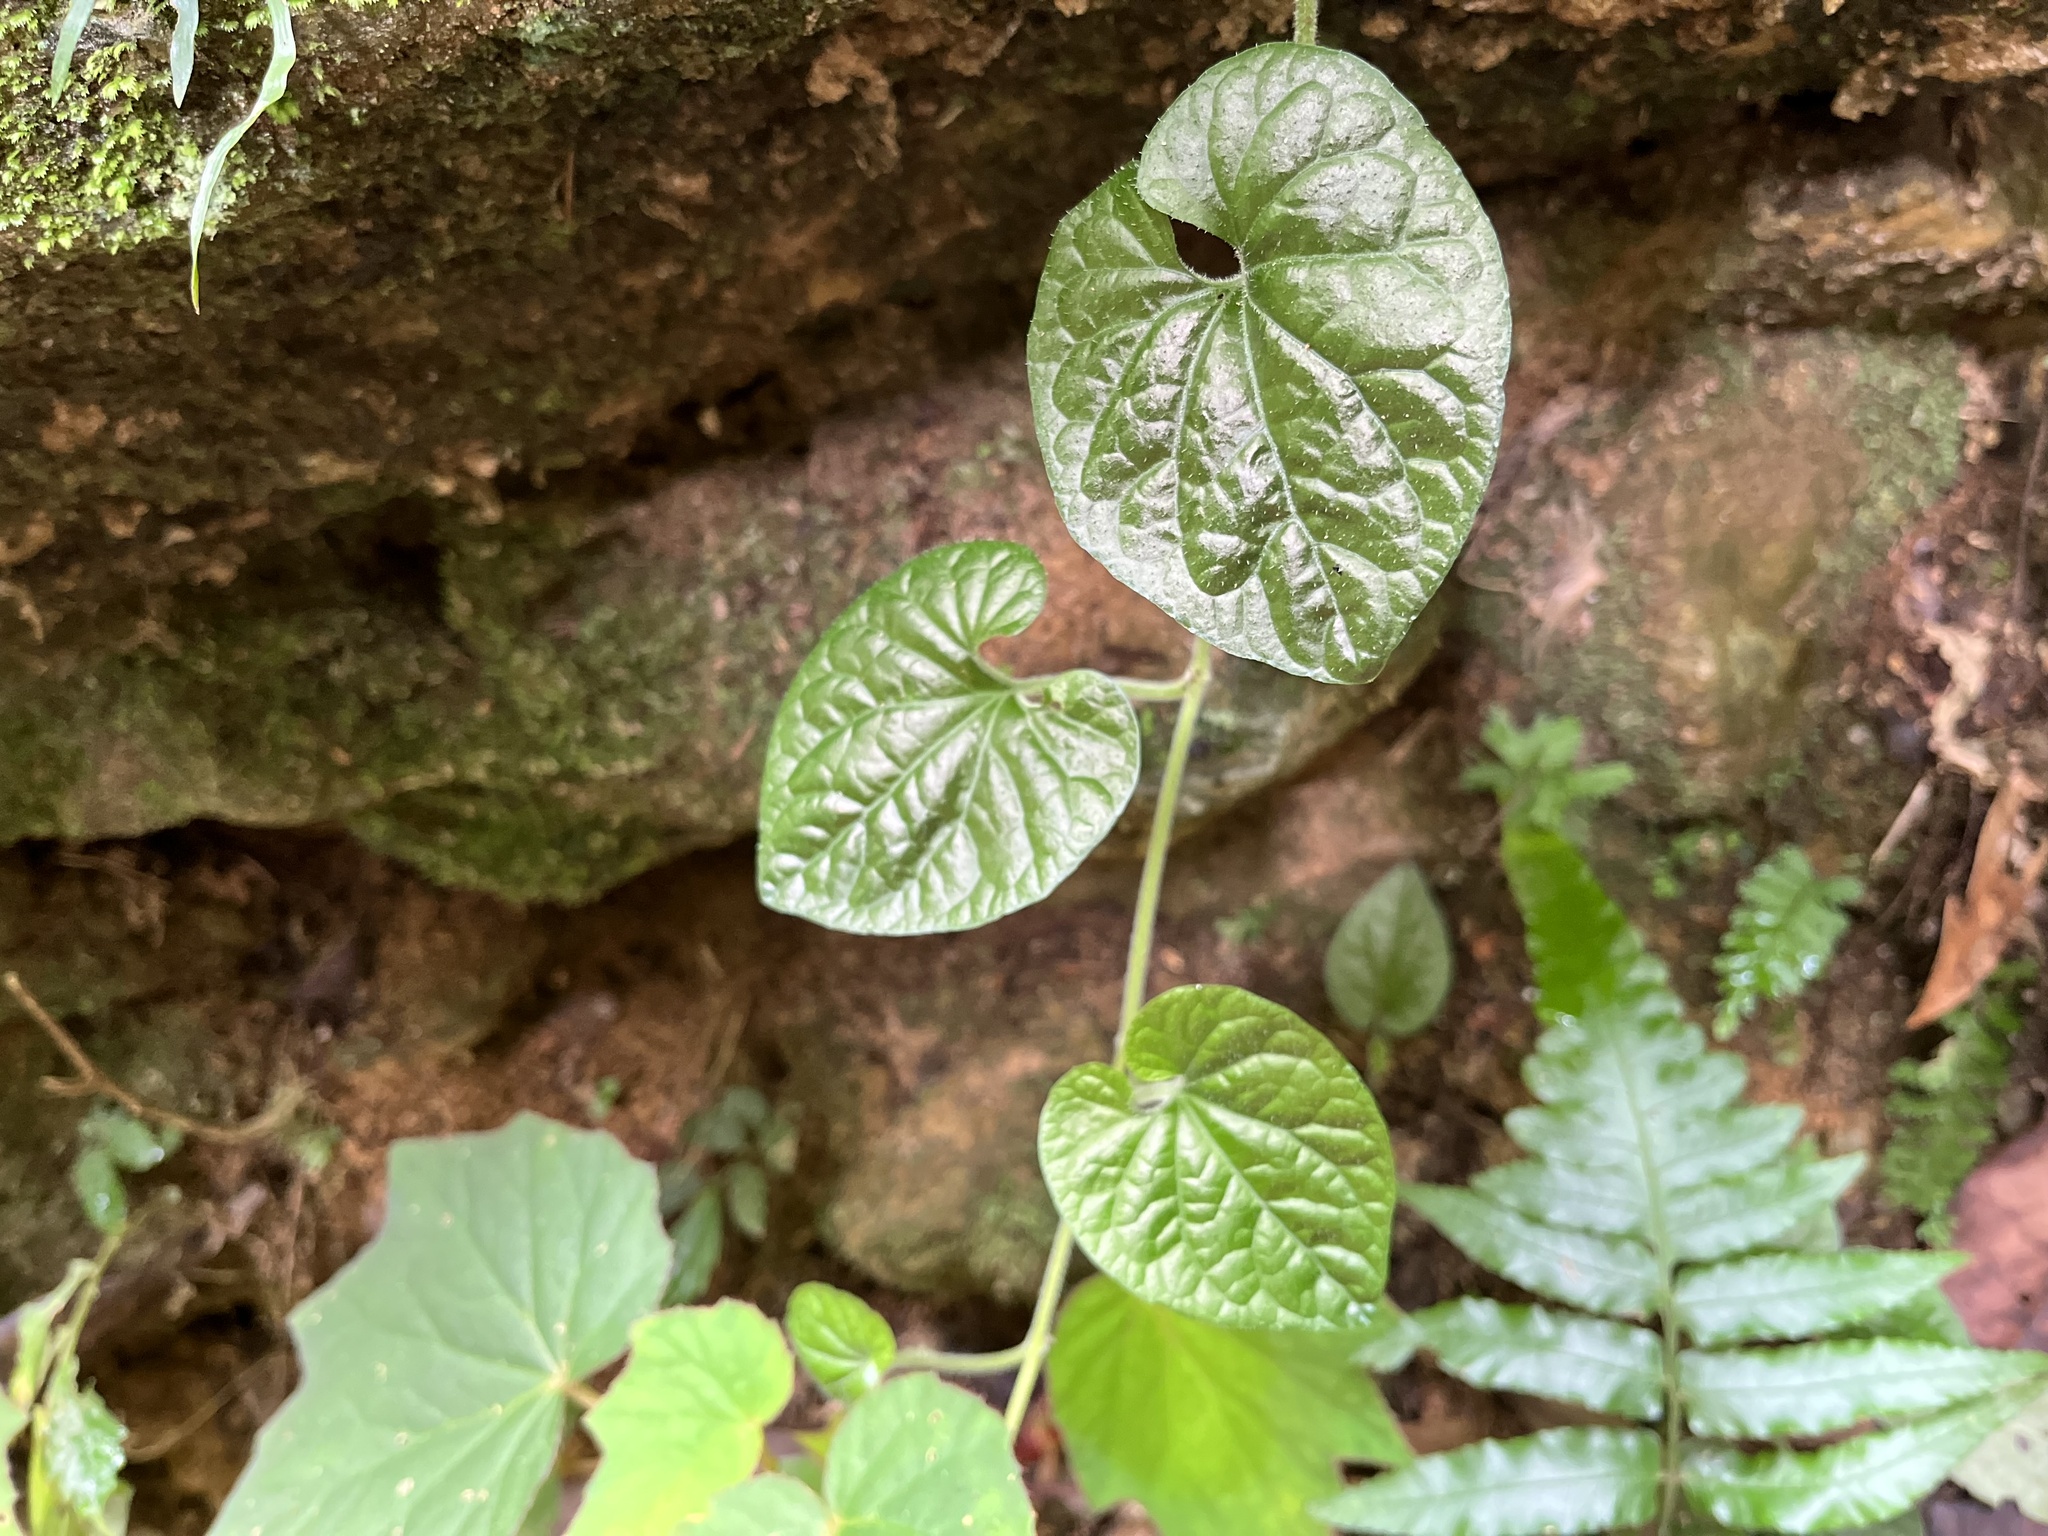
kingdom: Plantae
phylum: Tracheophyta
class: Magnoliopsida
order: Piperales
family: Piperaceae
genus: Piper
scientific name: Piper sintenense
